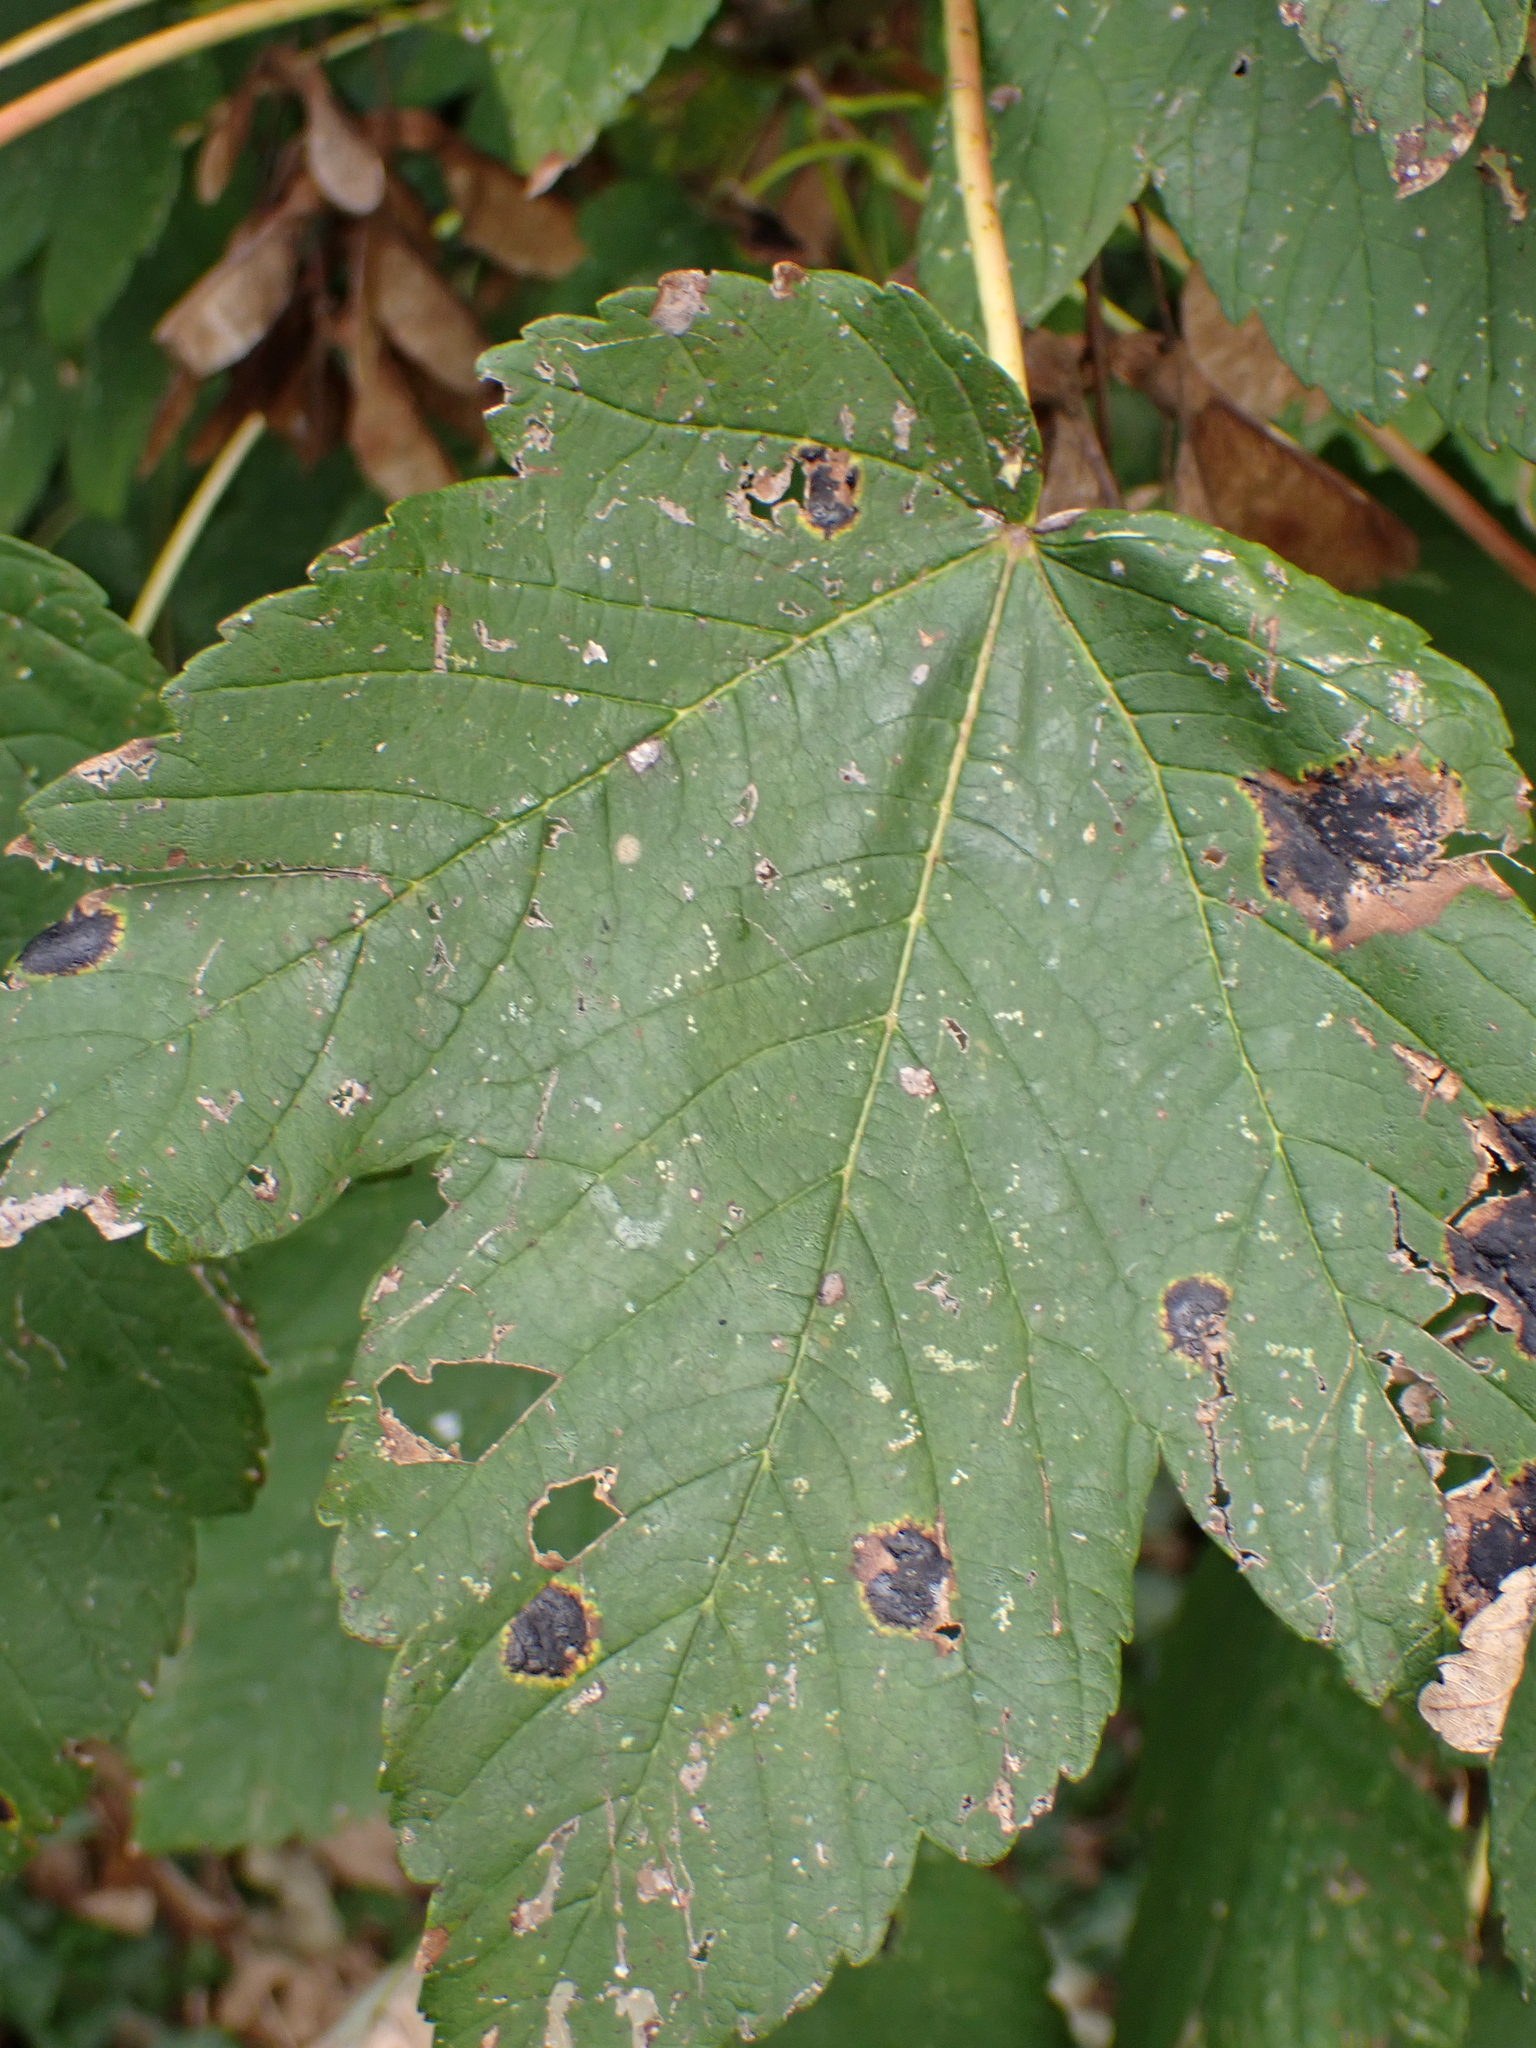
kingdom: Plantae
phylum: Tracheophyta
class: Magnoliopsida
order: Sapindales
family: Sapindaceae
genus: Acer
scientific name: Acer pseudoplatanus
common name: Sycamore
